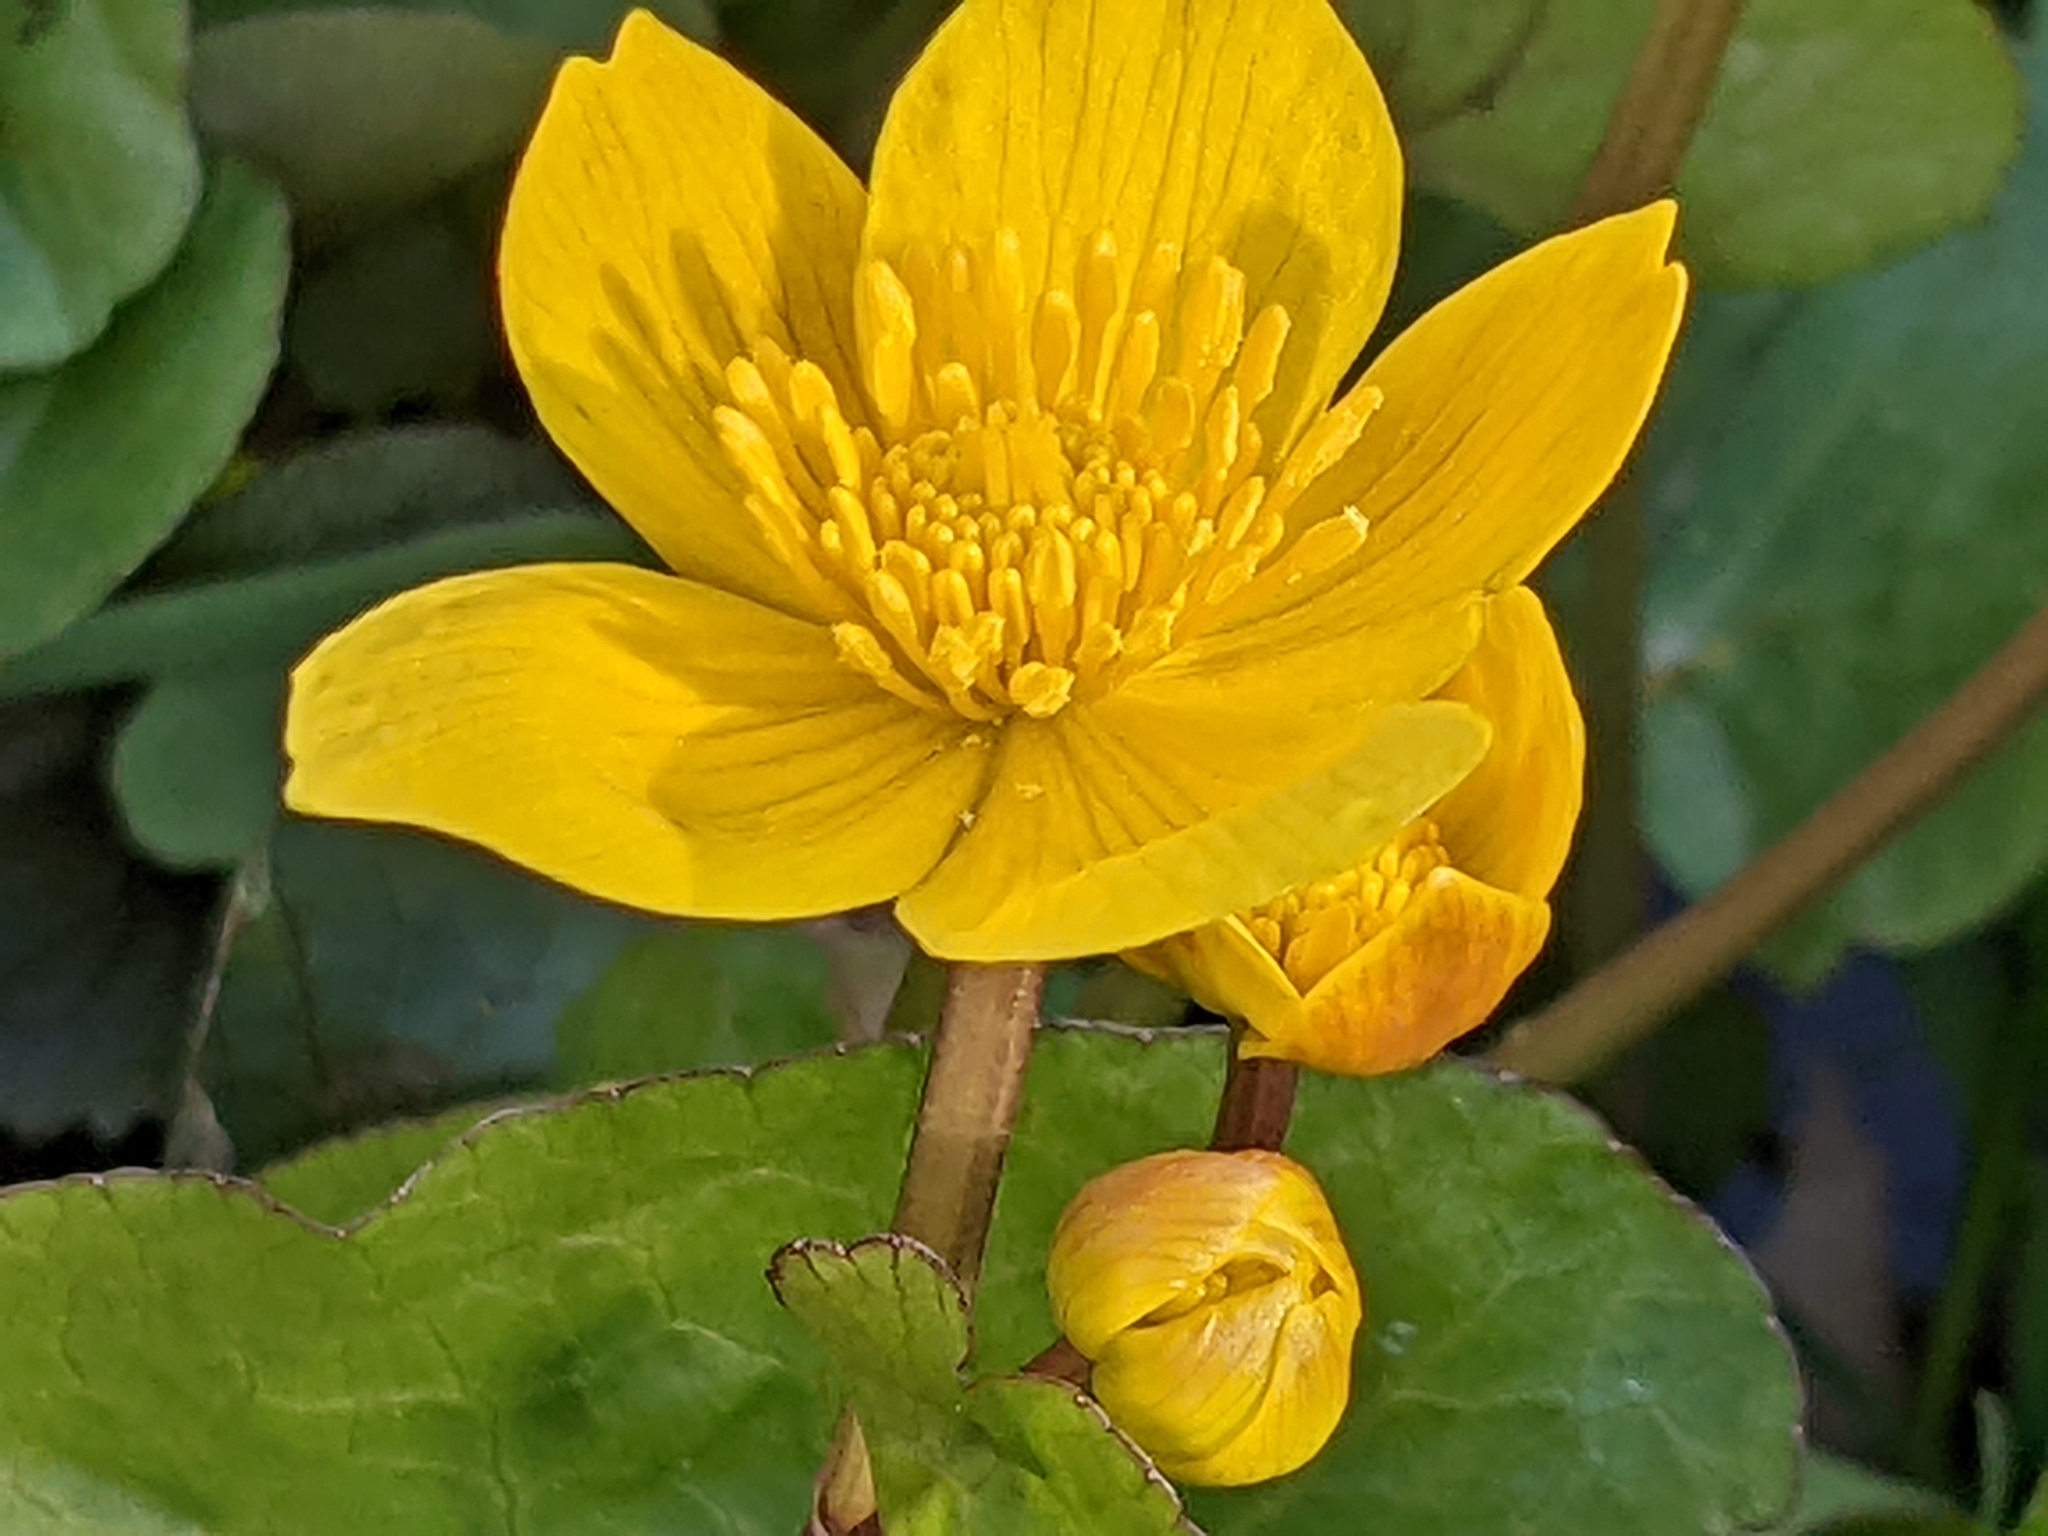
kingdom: Plantae
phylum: Tracheophyta
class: Magnoliopsida
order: Ranunculales
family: Ranunculaceae
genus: Caltha
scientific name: Caltha palustris
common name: Marsh marigold
